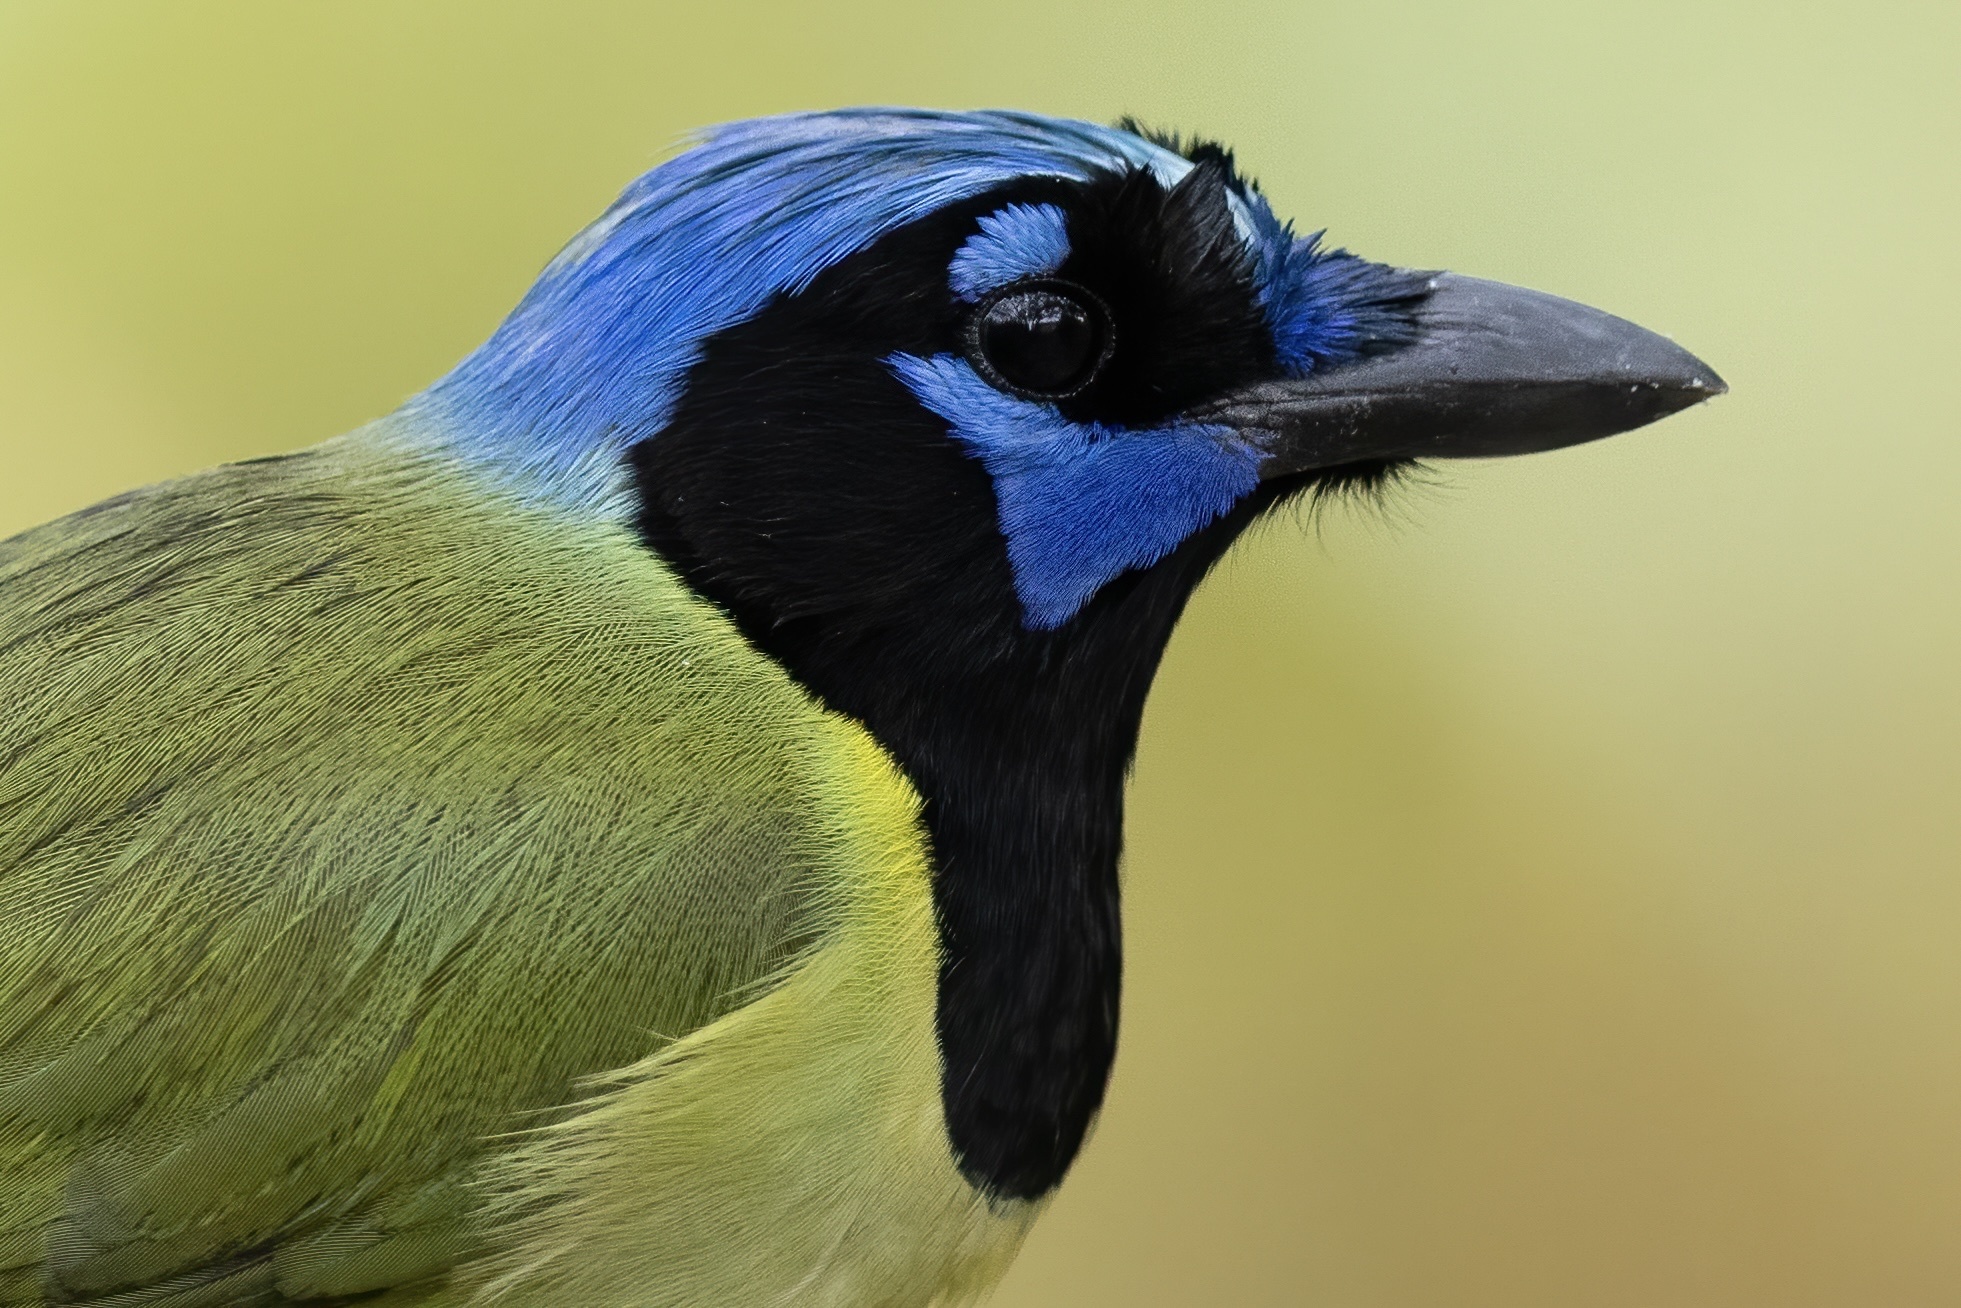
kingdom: Animalia
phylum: Chordata
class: Aves
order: Passeriformes
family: Corvidae
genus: Cyanocorax
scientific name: Cyanocorax yncas
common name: Green jay
